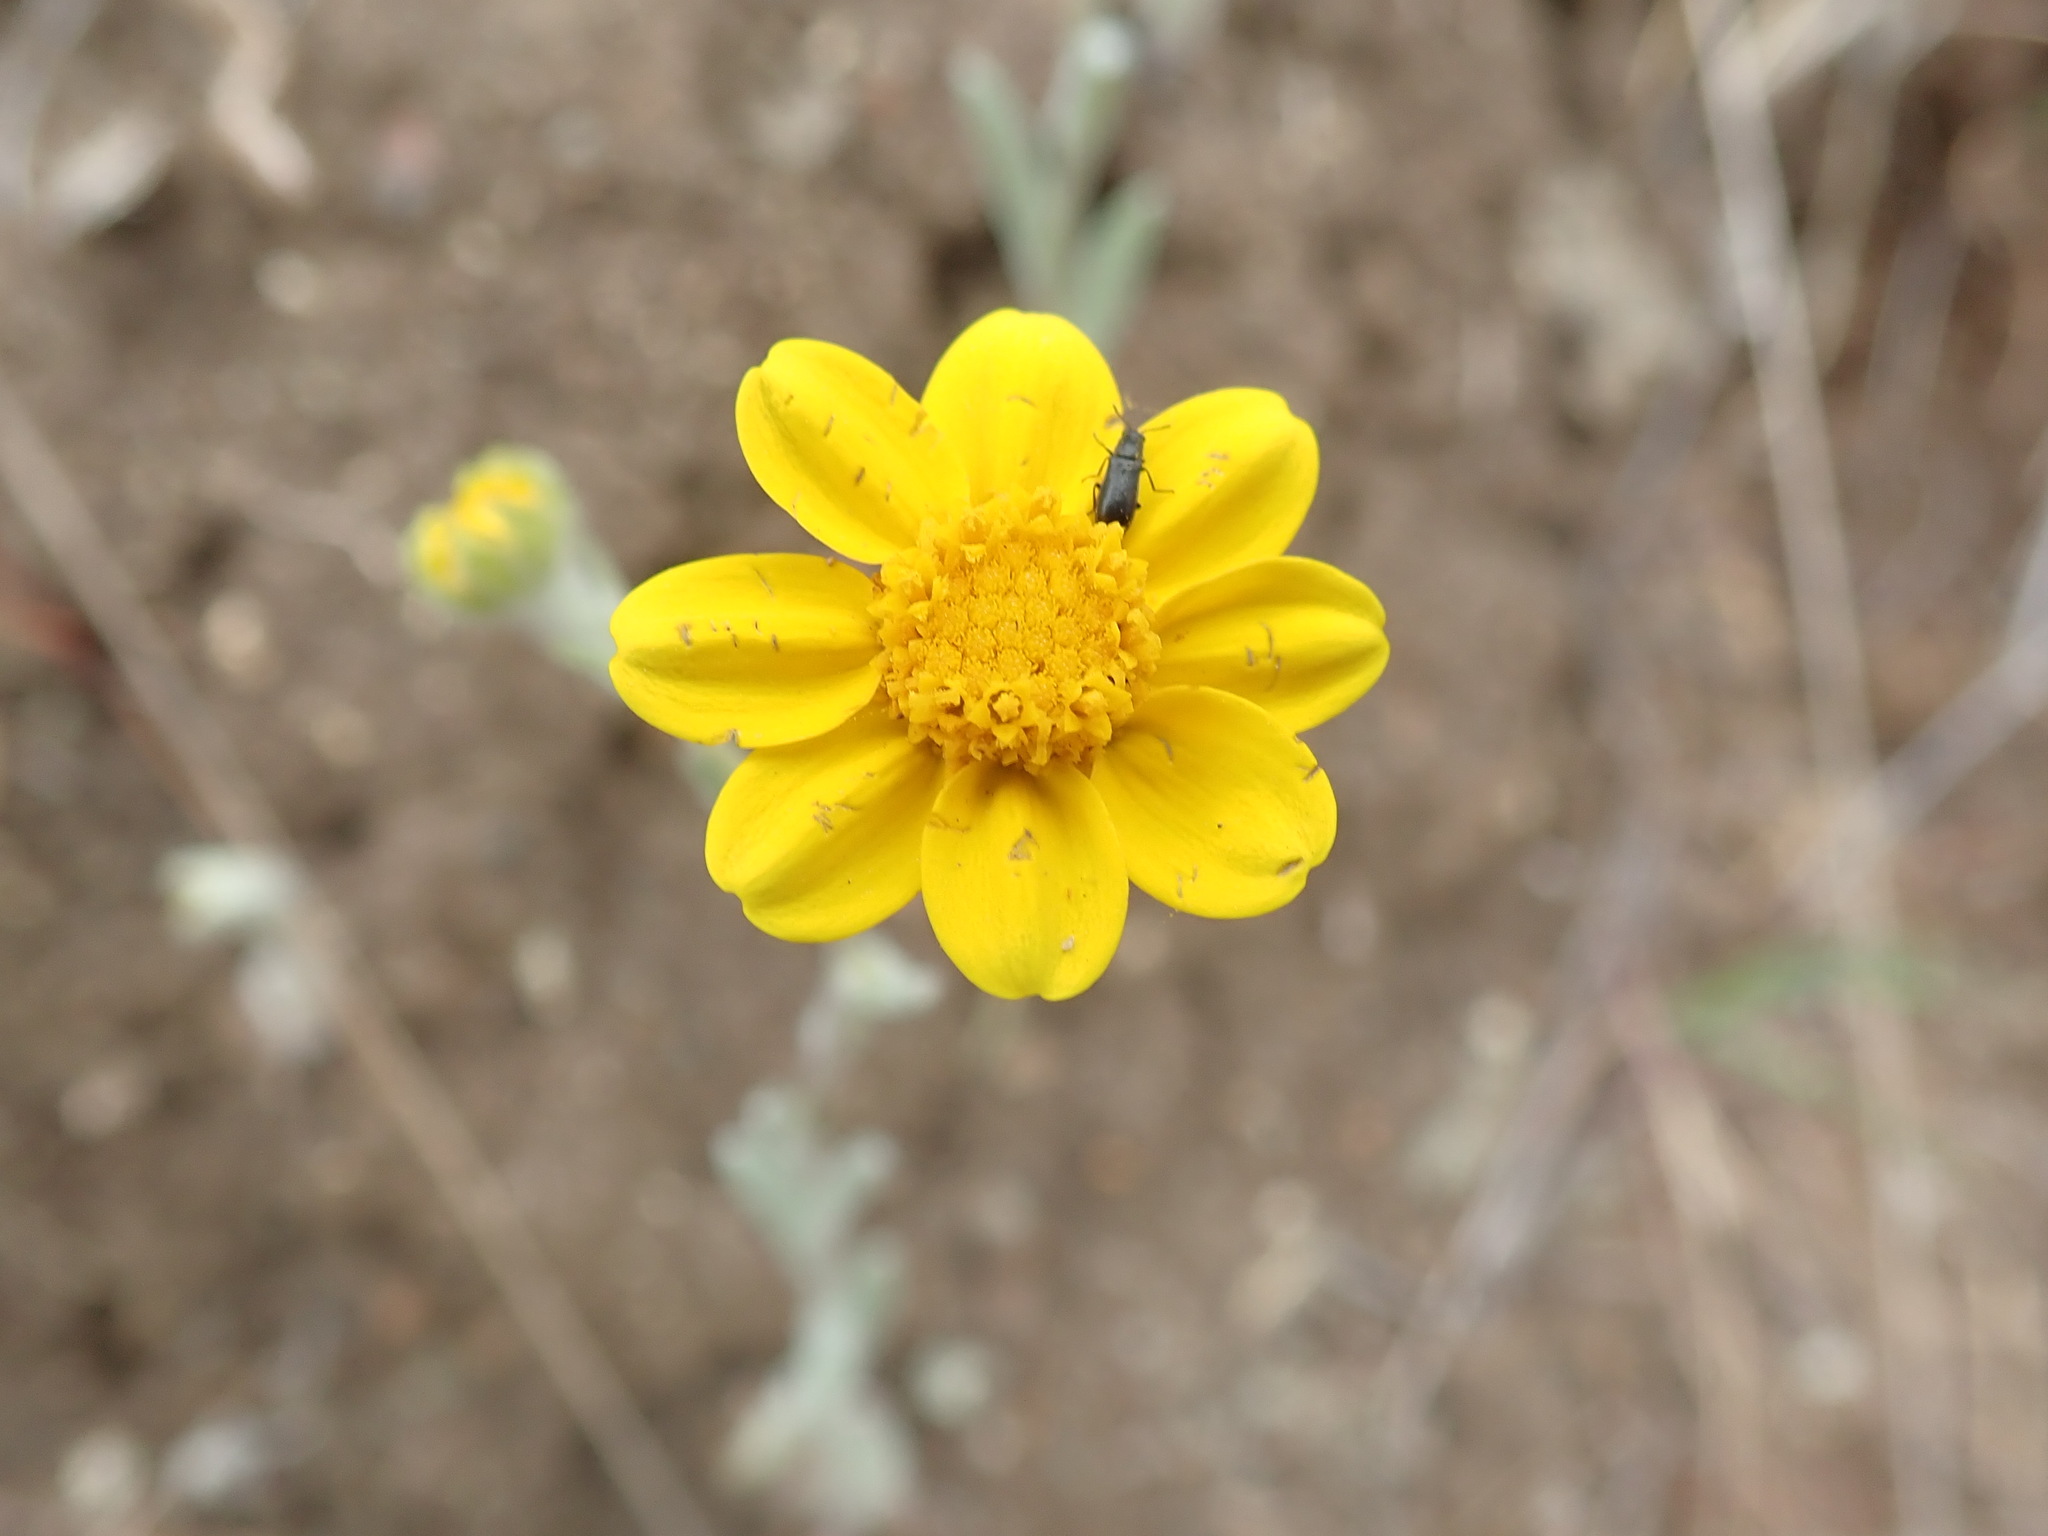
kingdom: Plantae
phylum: Tracheophyta
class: Magnoliopsida
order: Asterales
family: Asteraceae
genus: Monolopia
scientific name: Monolopia gracilens
